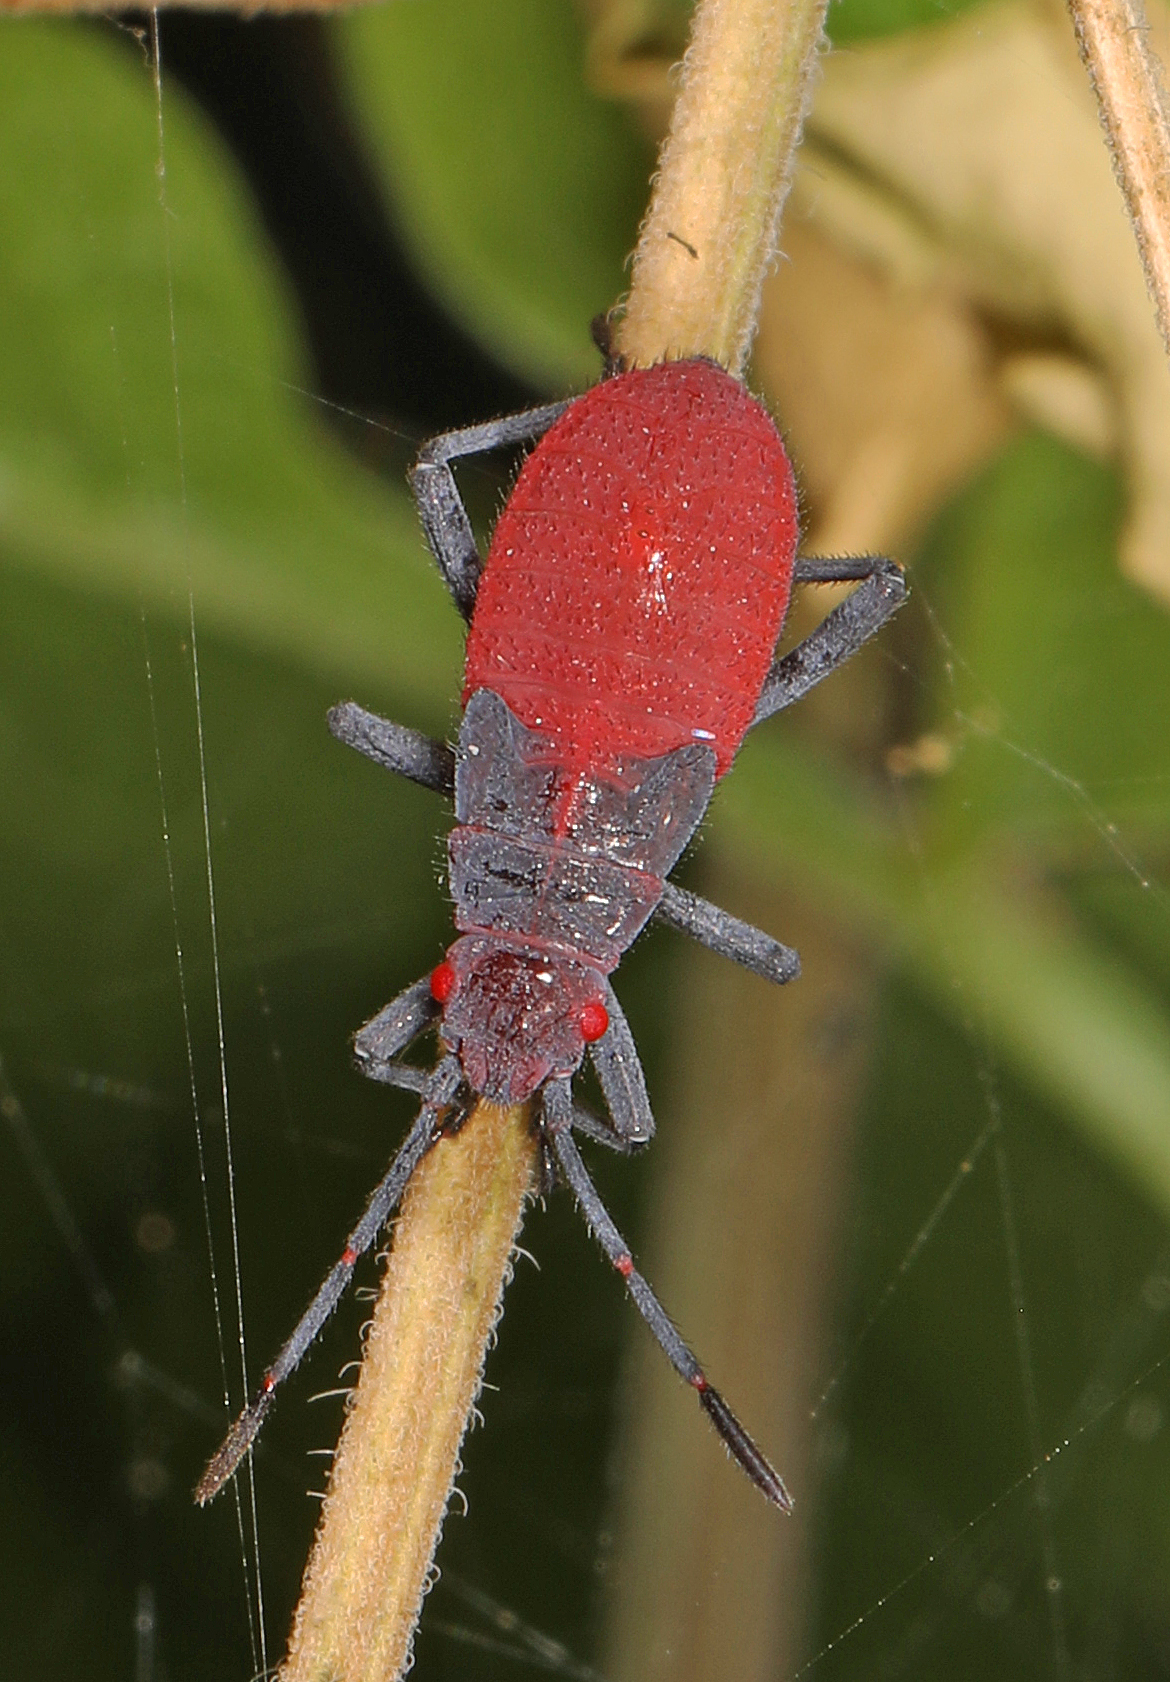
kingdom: Animalia
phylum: Arthropoda
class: Insecta
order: Hemiptera
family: Rhopalidae
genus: Jadera
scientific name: Jadera haematoloma
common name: Red-shouldered bug
